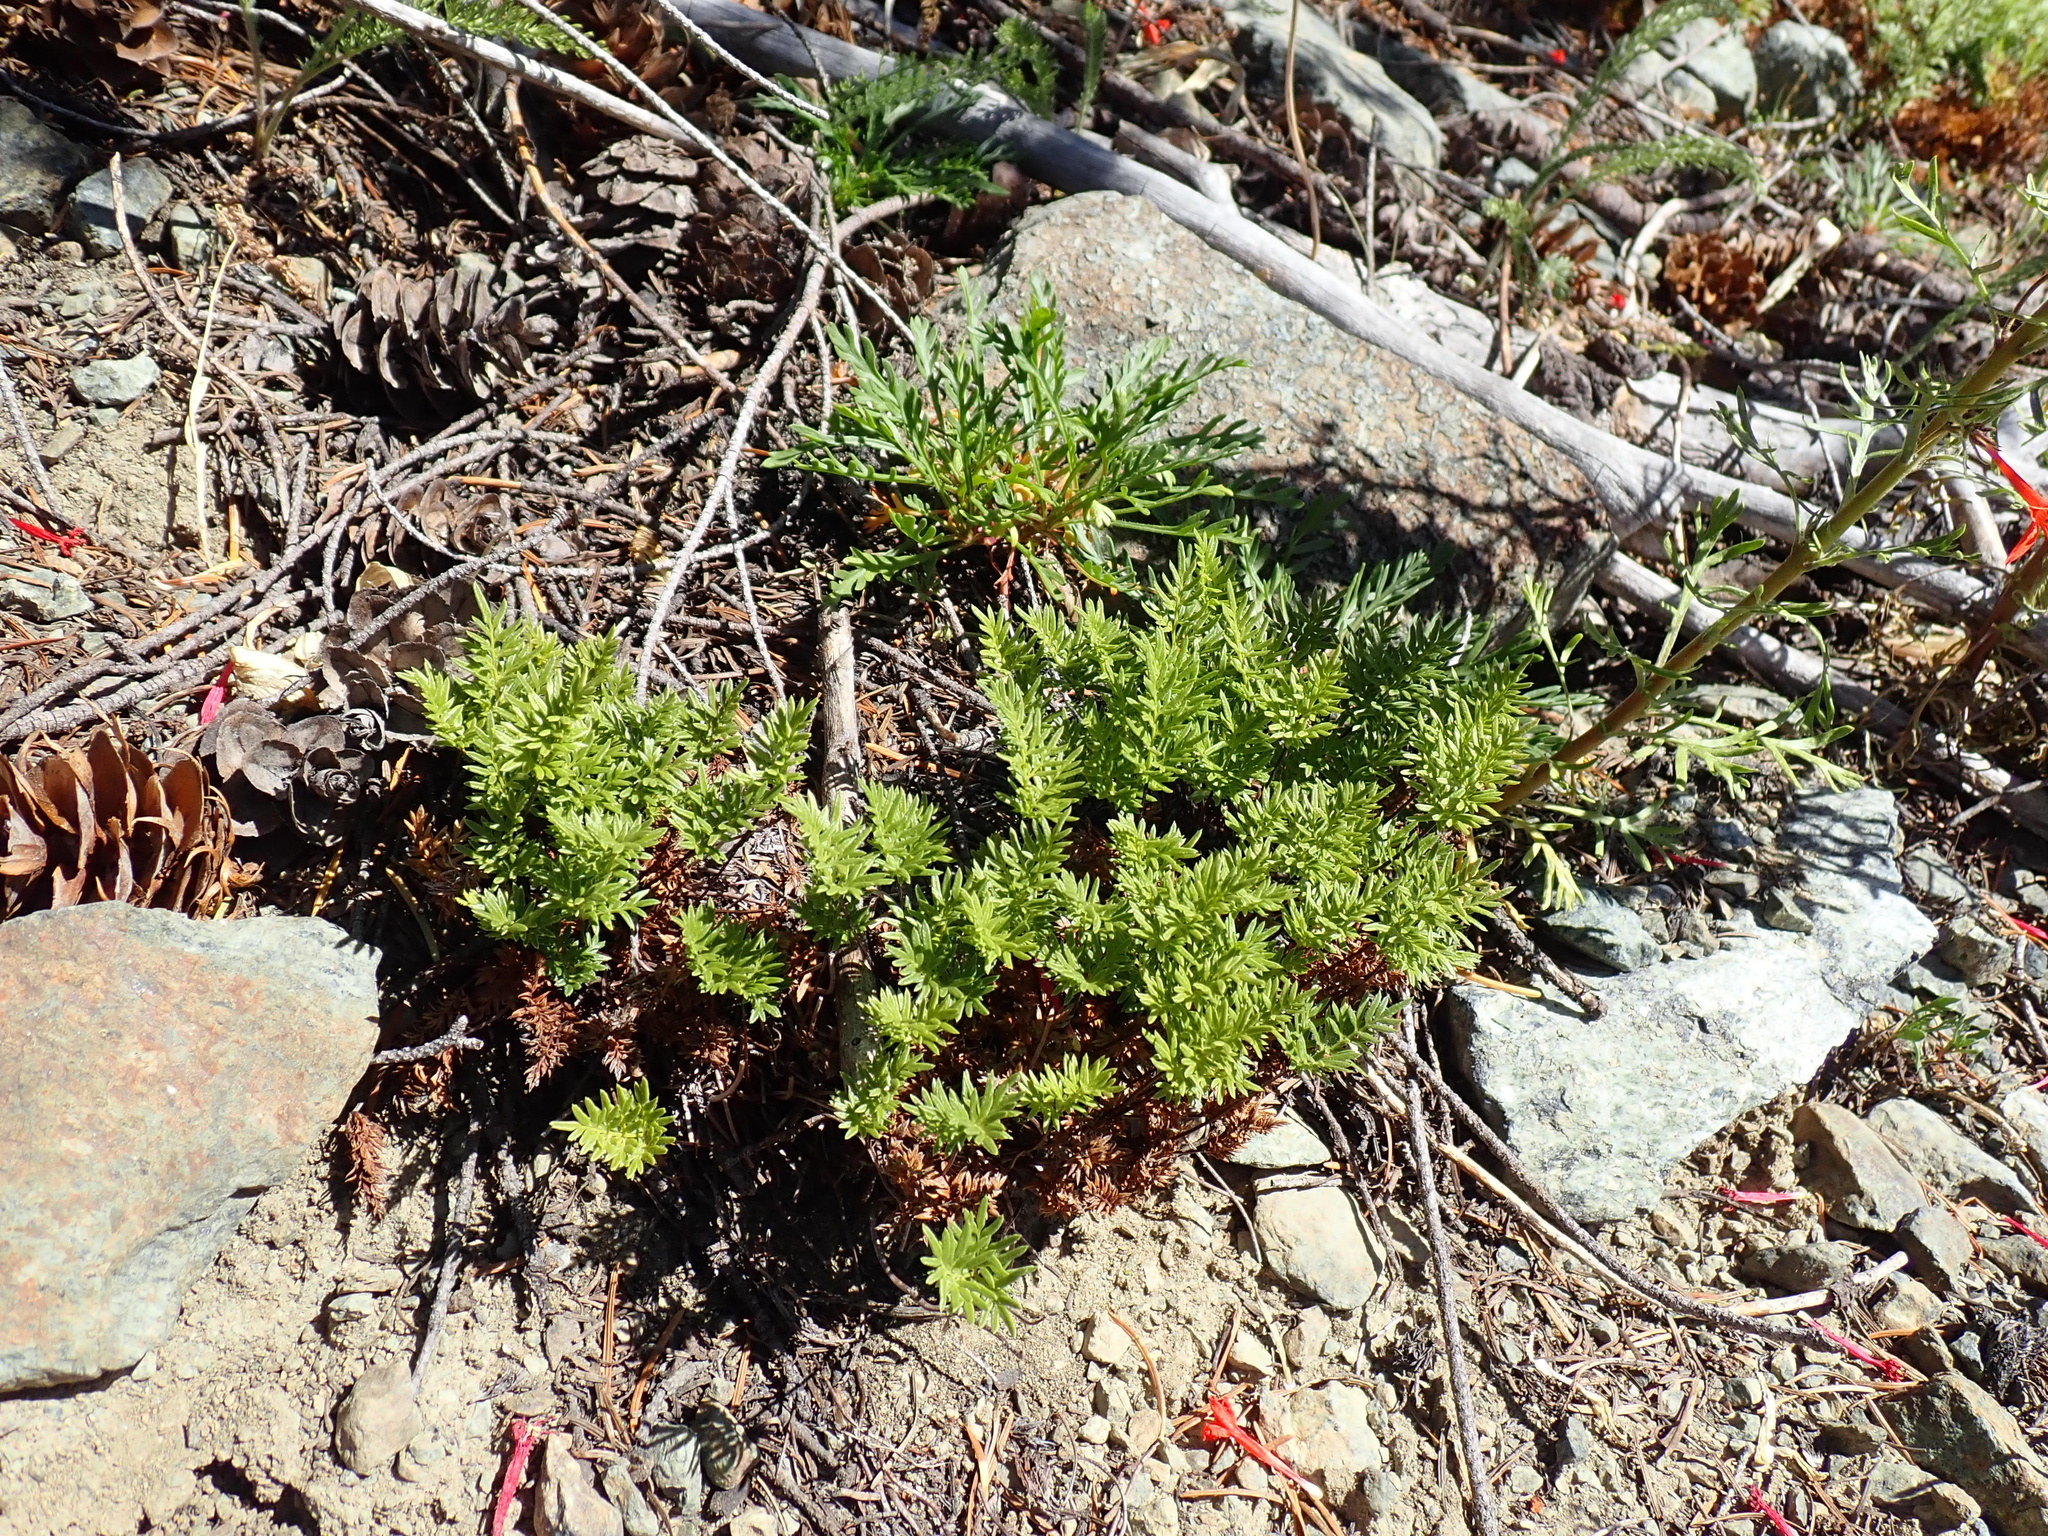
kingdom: Plantae
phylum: Tracheophyta
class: Polypodiopsida
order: Polypodiales
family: Pteridaceae
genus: Aspidotis
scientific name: Aspidotis densa
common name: Indian's dream
